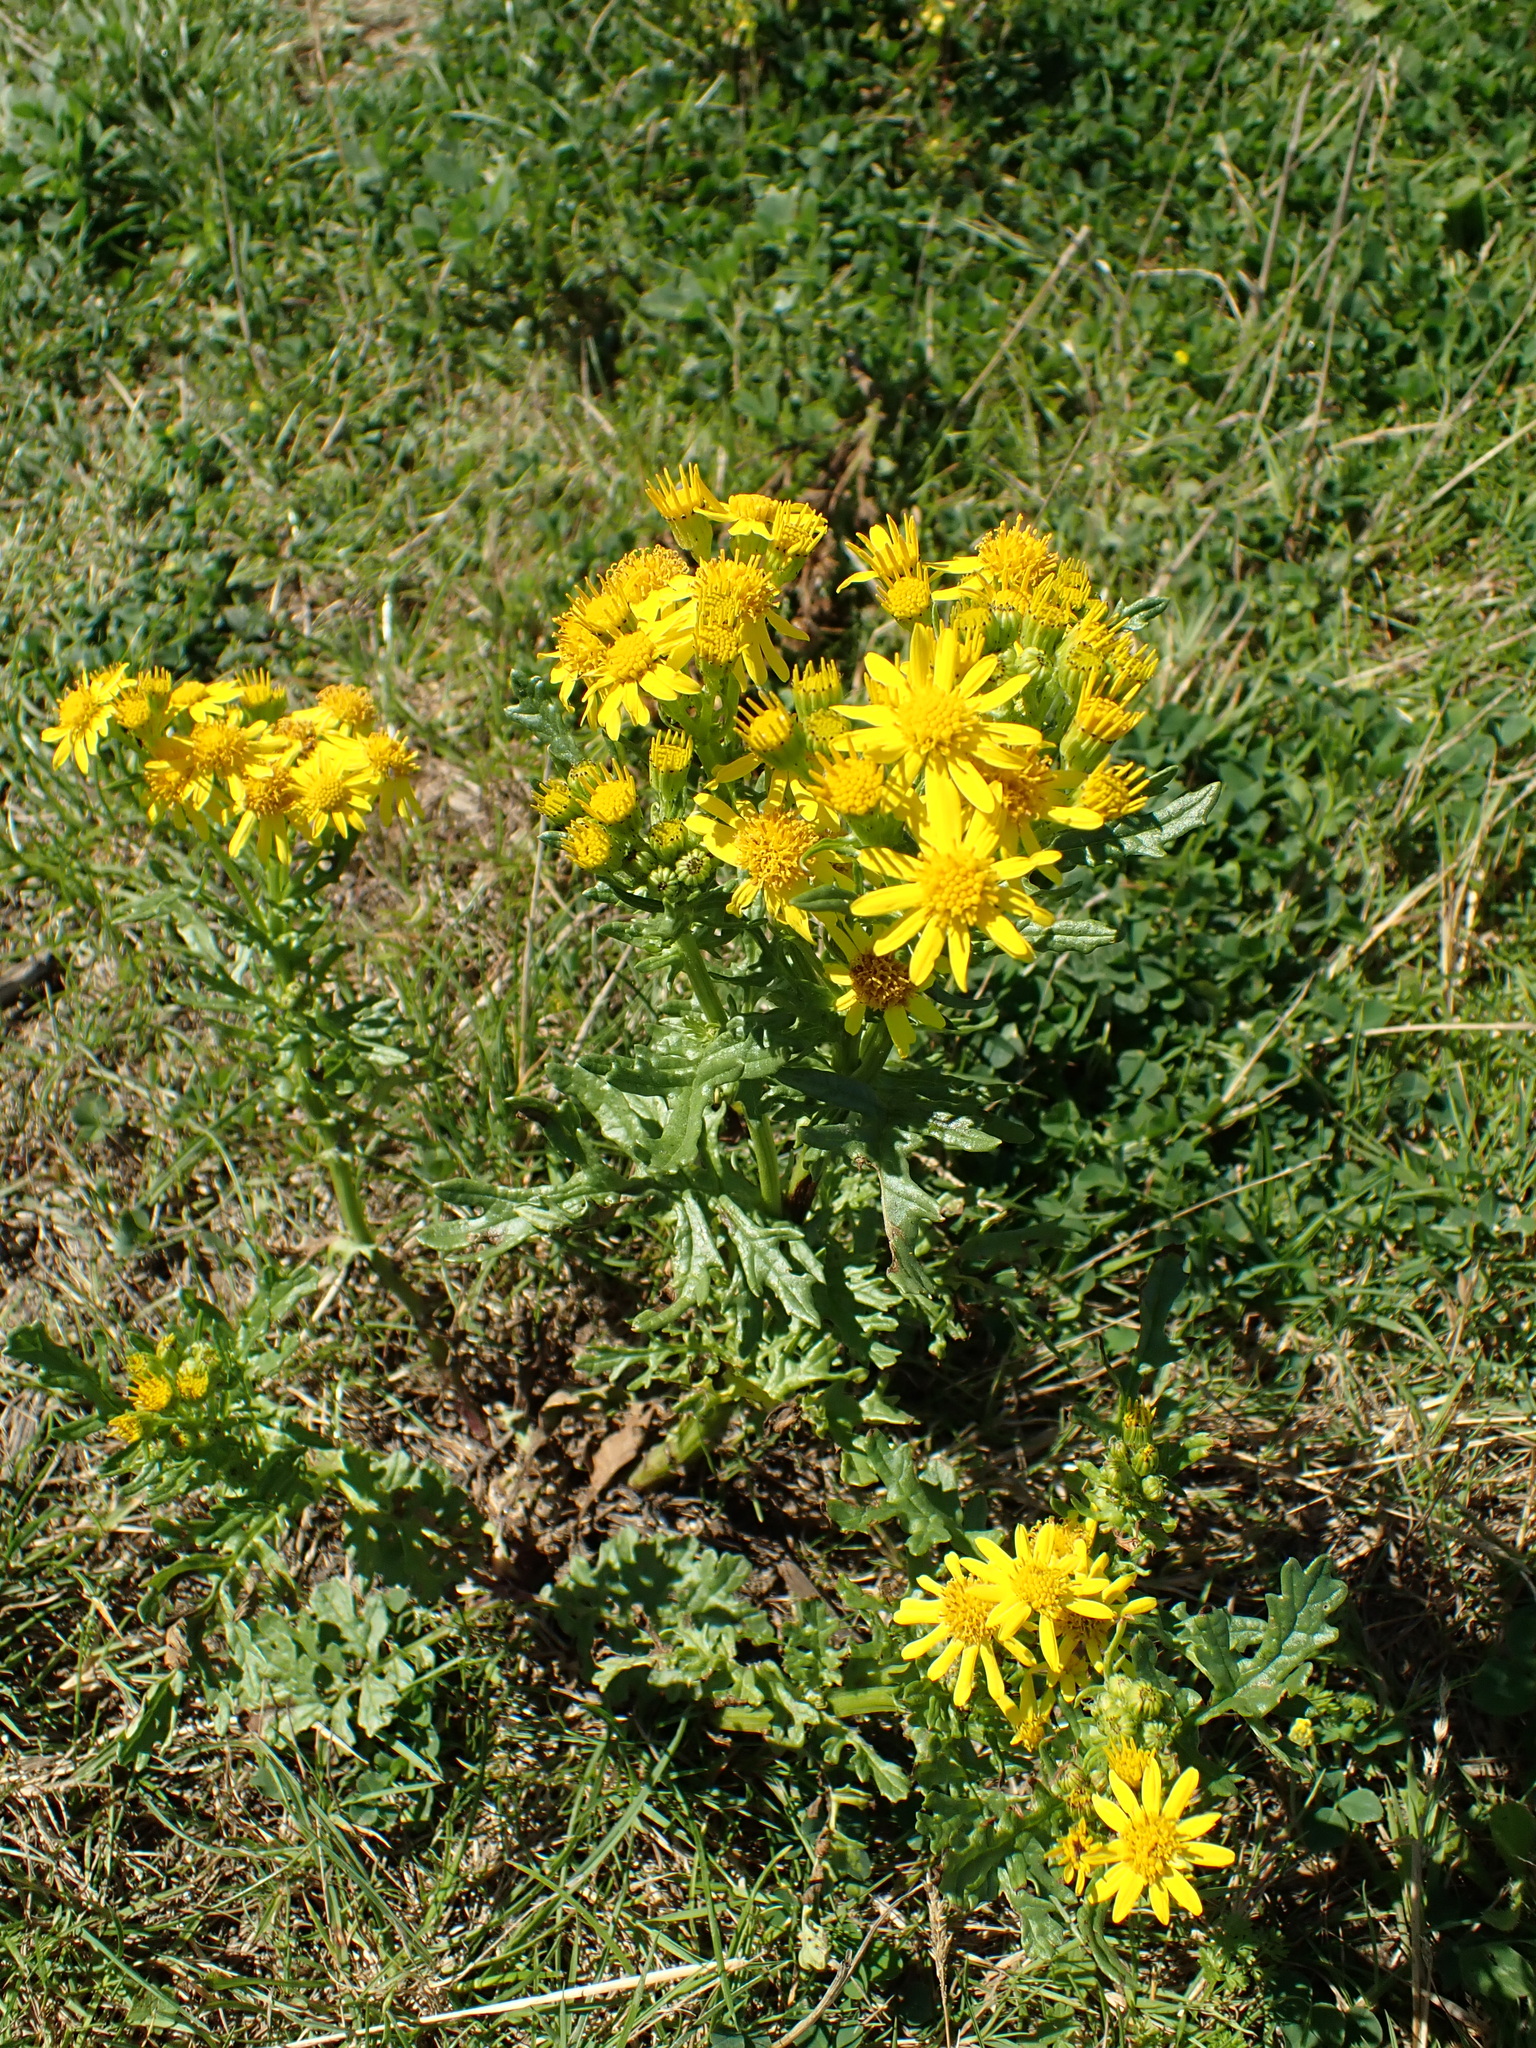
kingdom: Plantae
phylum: Tracheophyta
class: Magnoliopsida
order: Asterales
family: Asteraceae
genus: Jacobaea
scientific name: Jacobaea vulgaris
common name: Stinking willie
